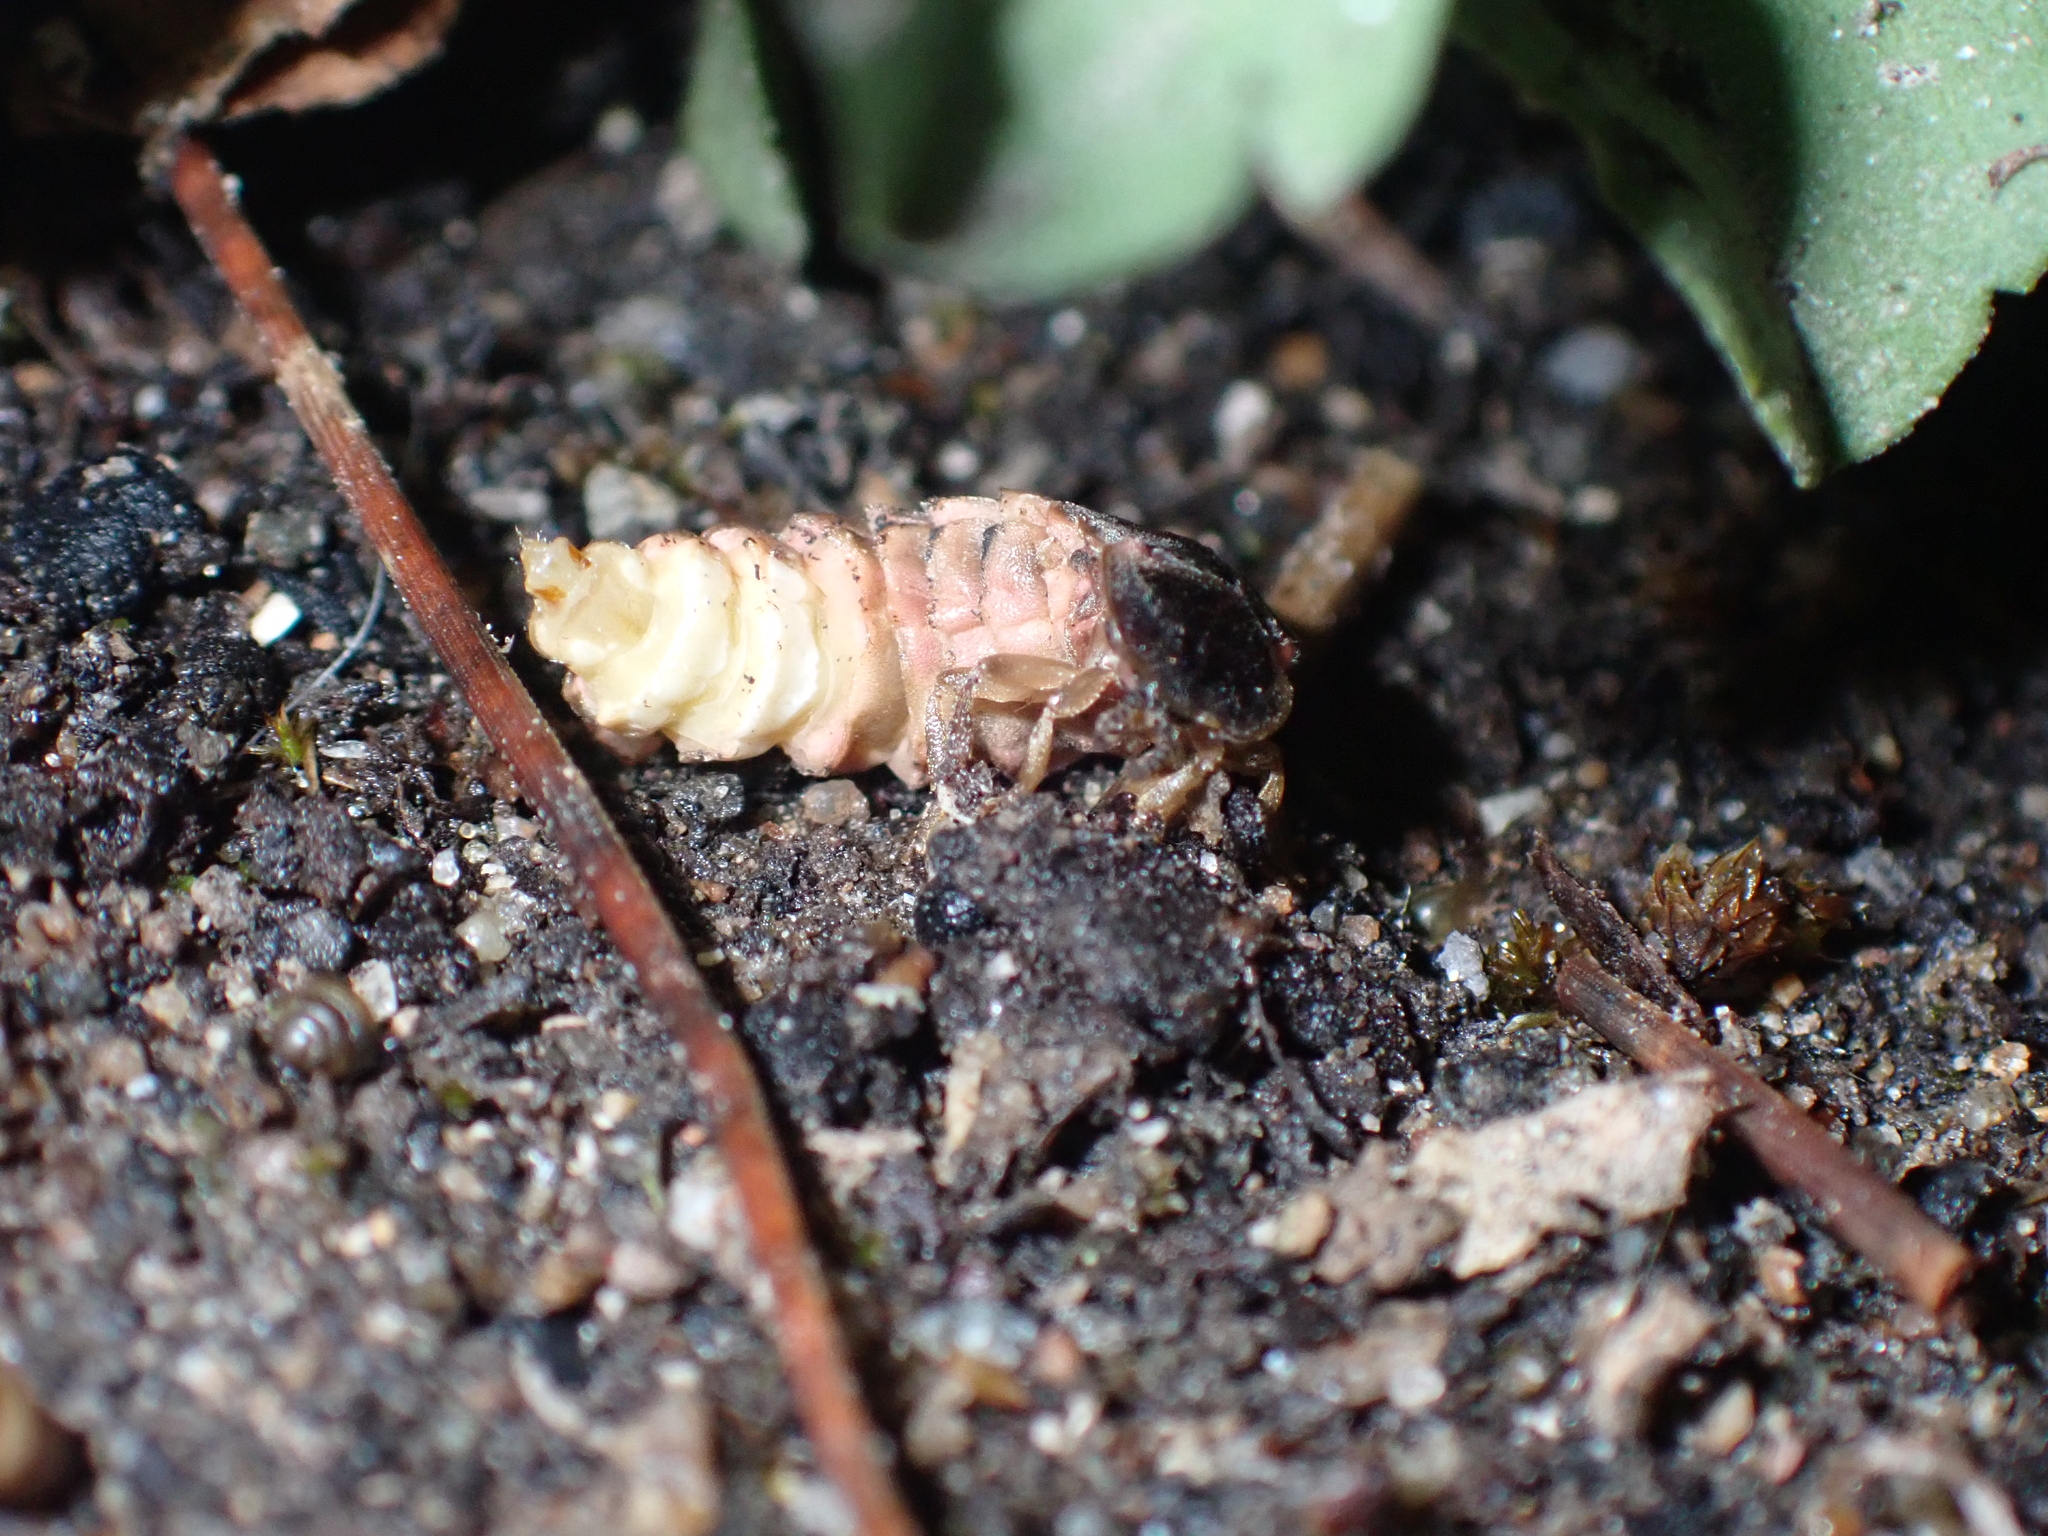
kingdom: Animalia
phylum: Arthropoda
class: Insecta
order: Coleoptera
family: Lampyridae
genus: Lampyris
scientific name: Lampyris noctiluca
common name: Glow-worm
